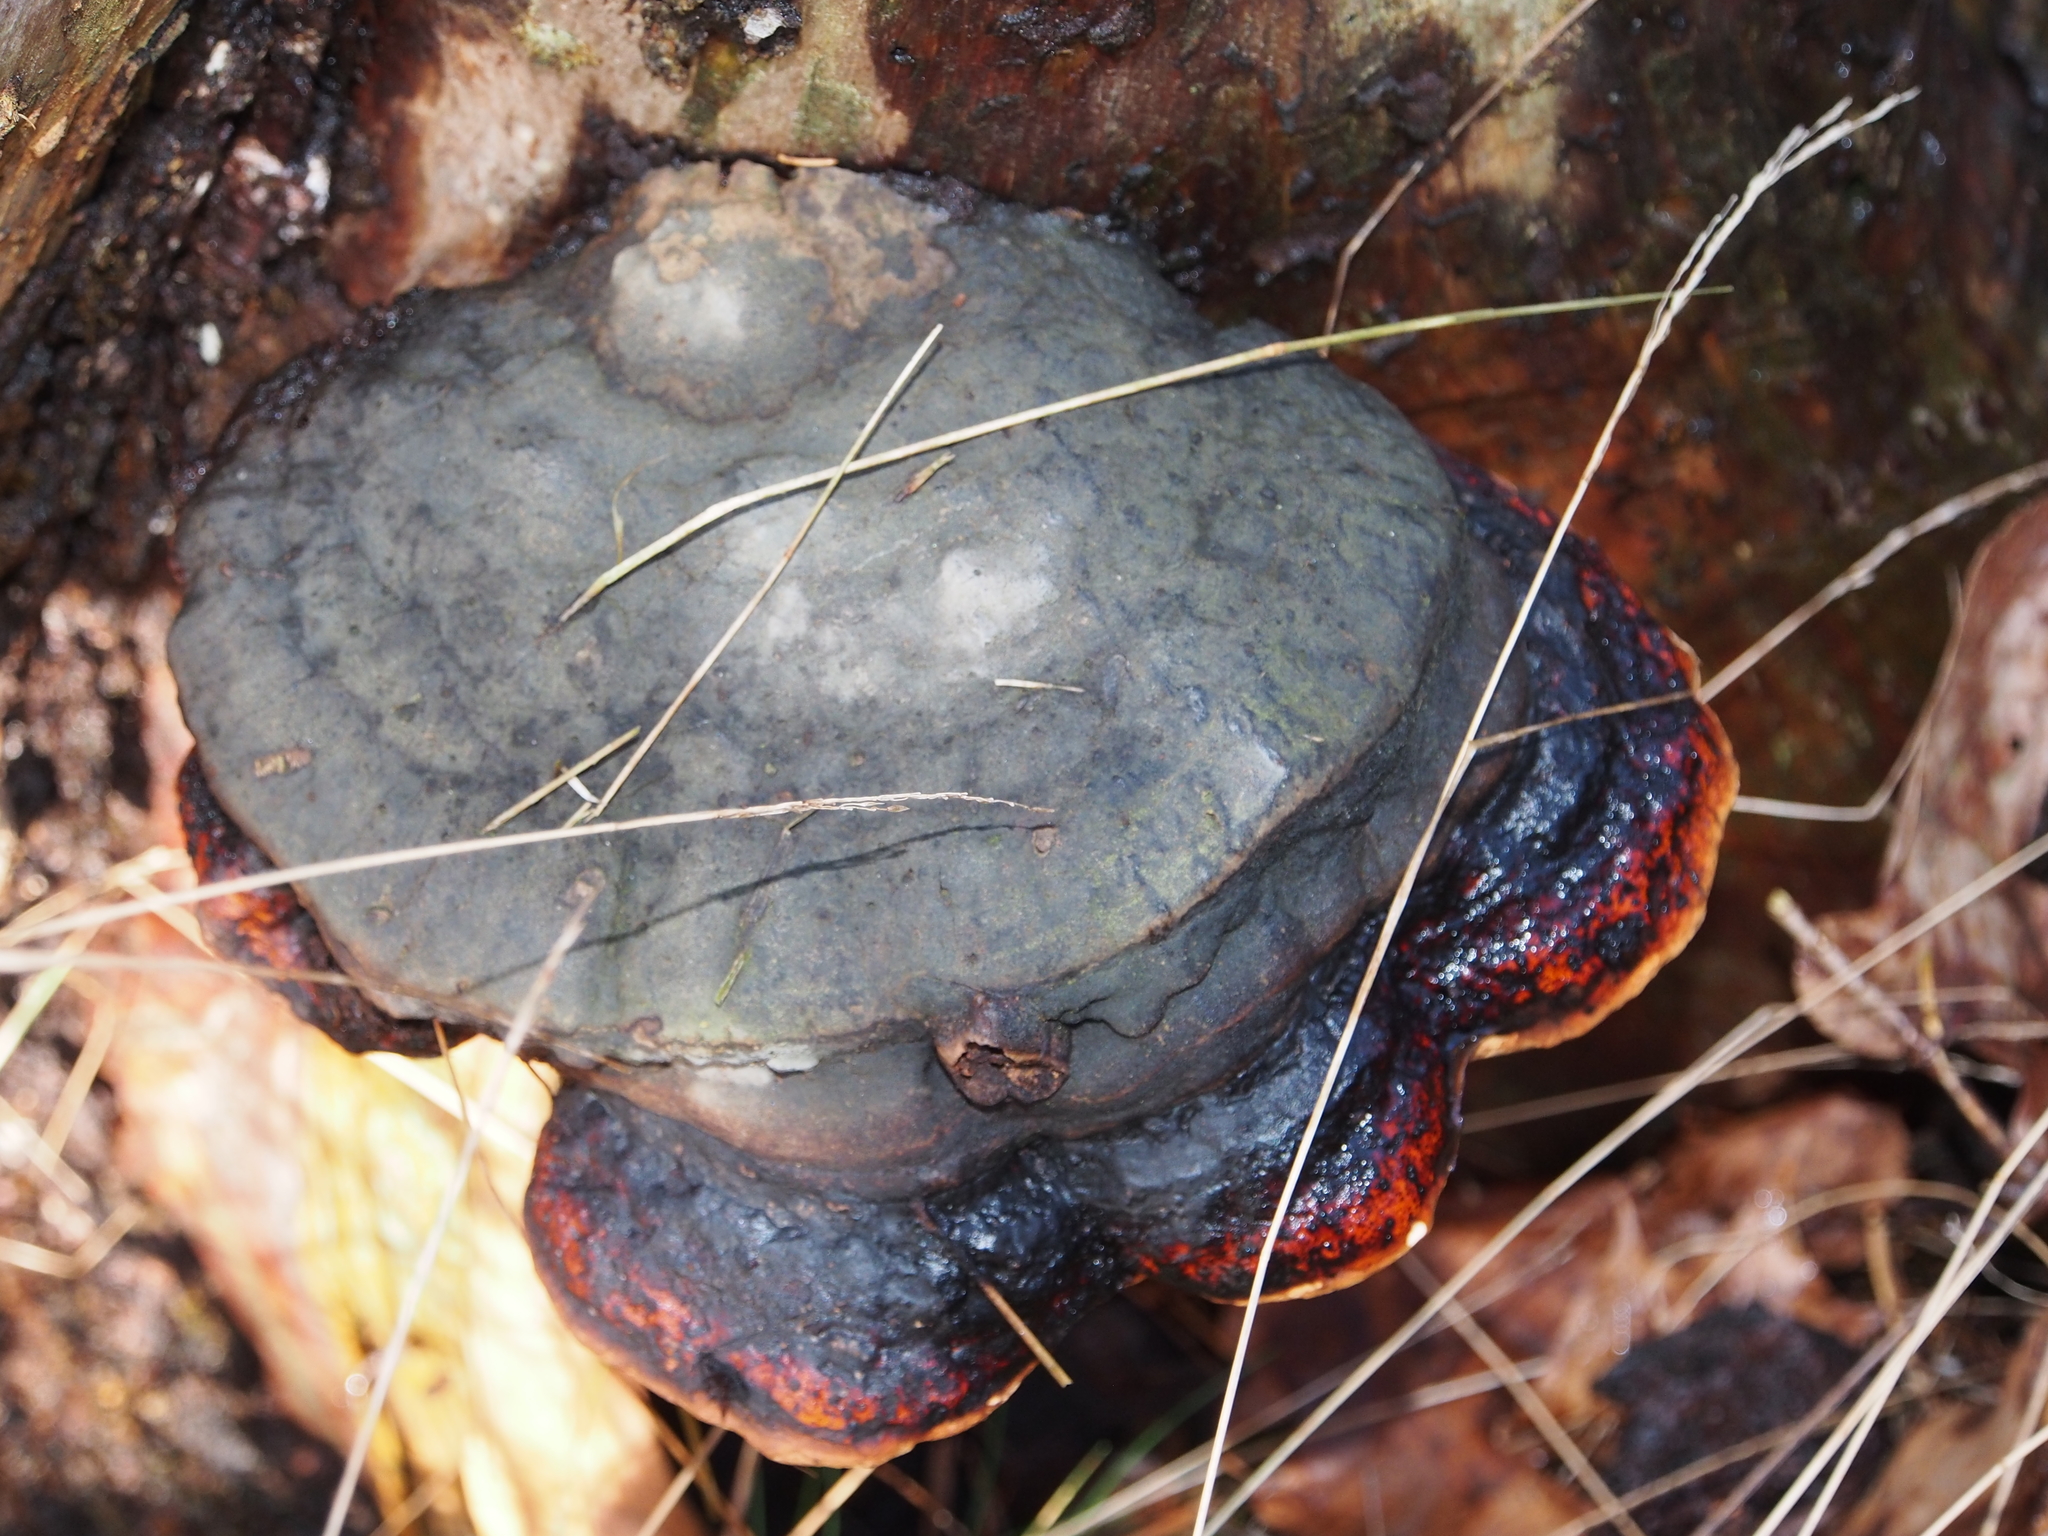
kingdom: Fungi
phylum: Basidiomycota
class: Agaricomycetes
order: Polyporales
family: Fomitopsidaceae
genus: Fomitopsis
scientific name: Fomitopsis pinicola
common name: Red-belted bracket
